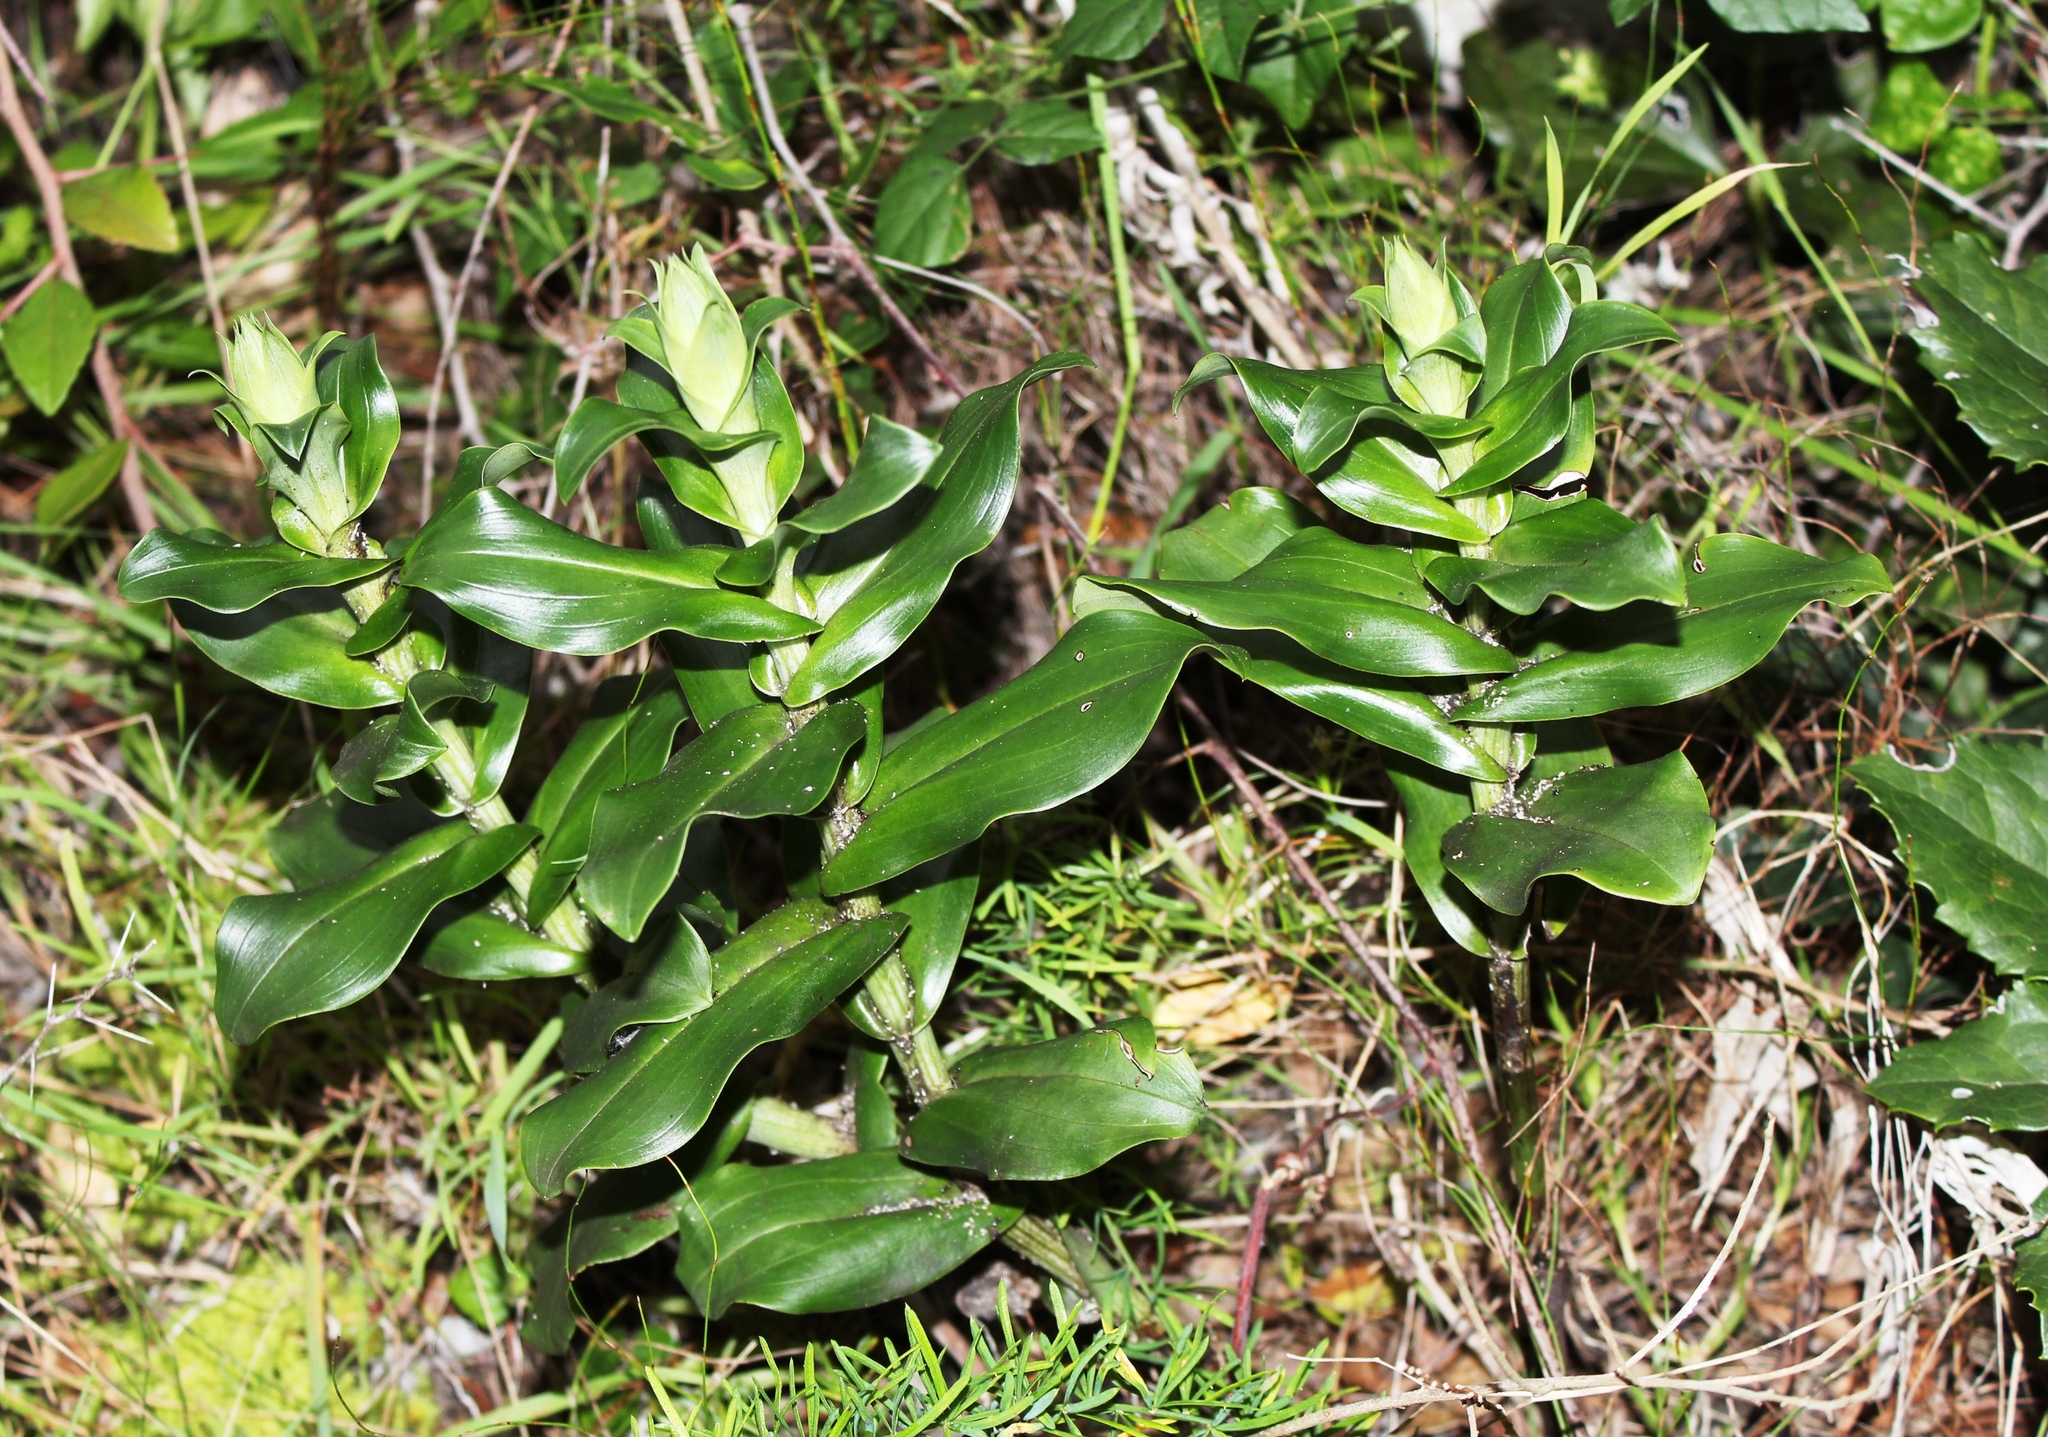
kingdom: Plantae
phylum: Tracheophyta
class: Liliopsida
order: Asparagales
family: Orchidaceae
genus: Bonatea
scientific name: Bonatea speciosa
